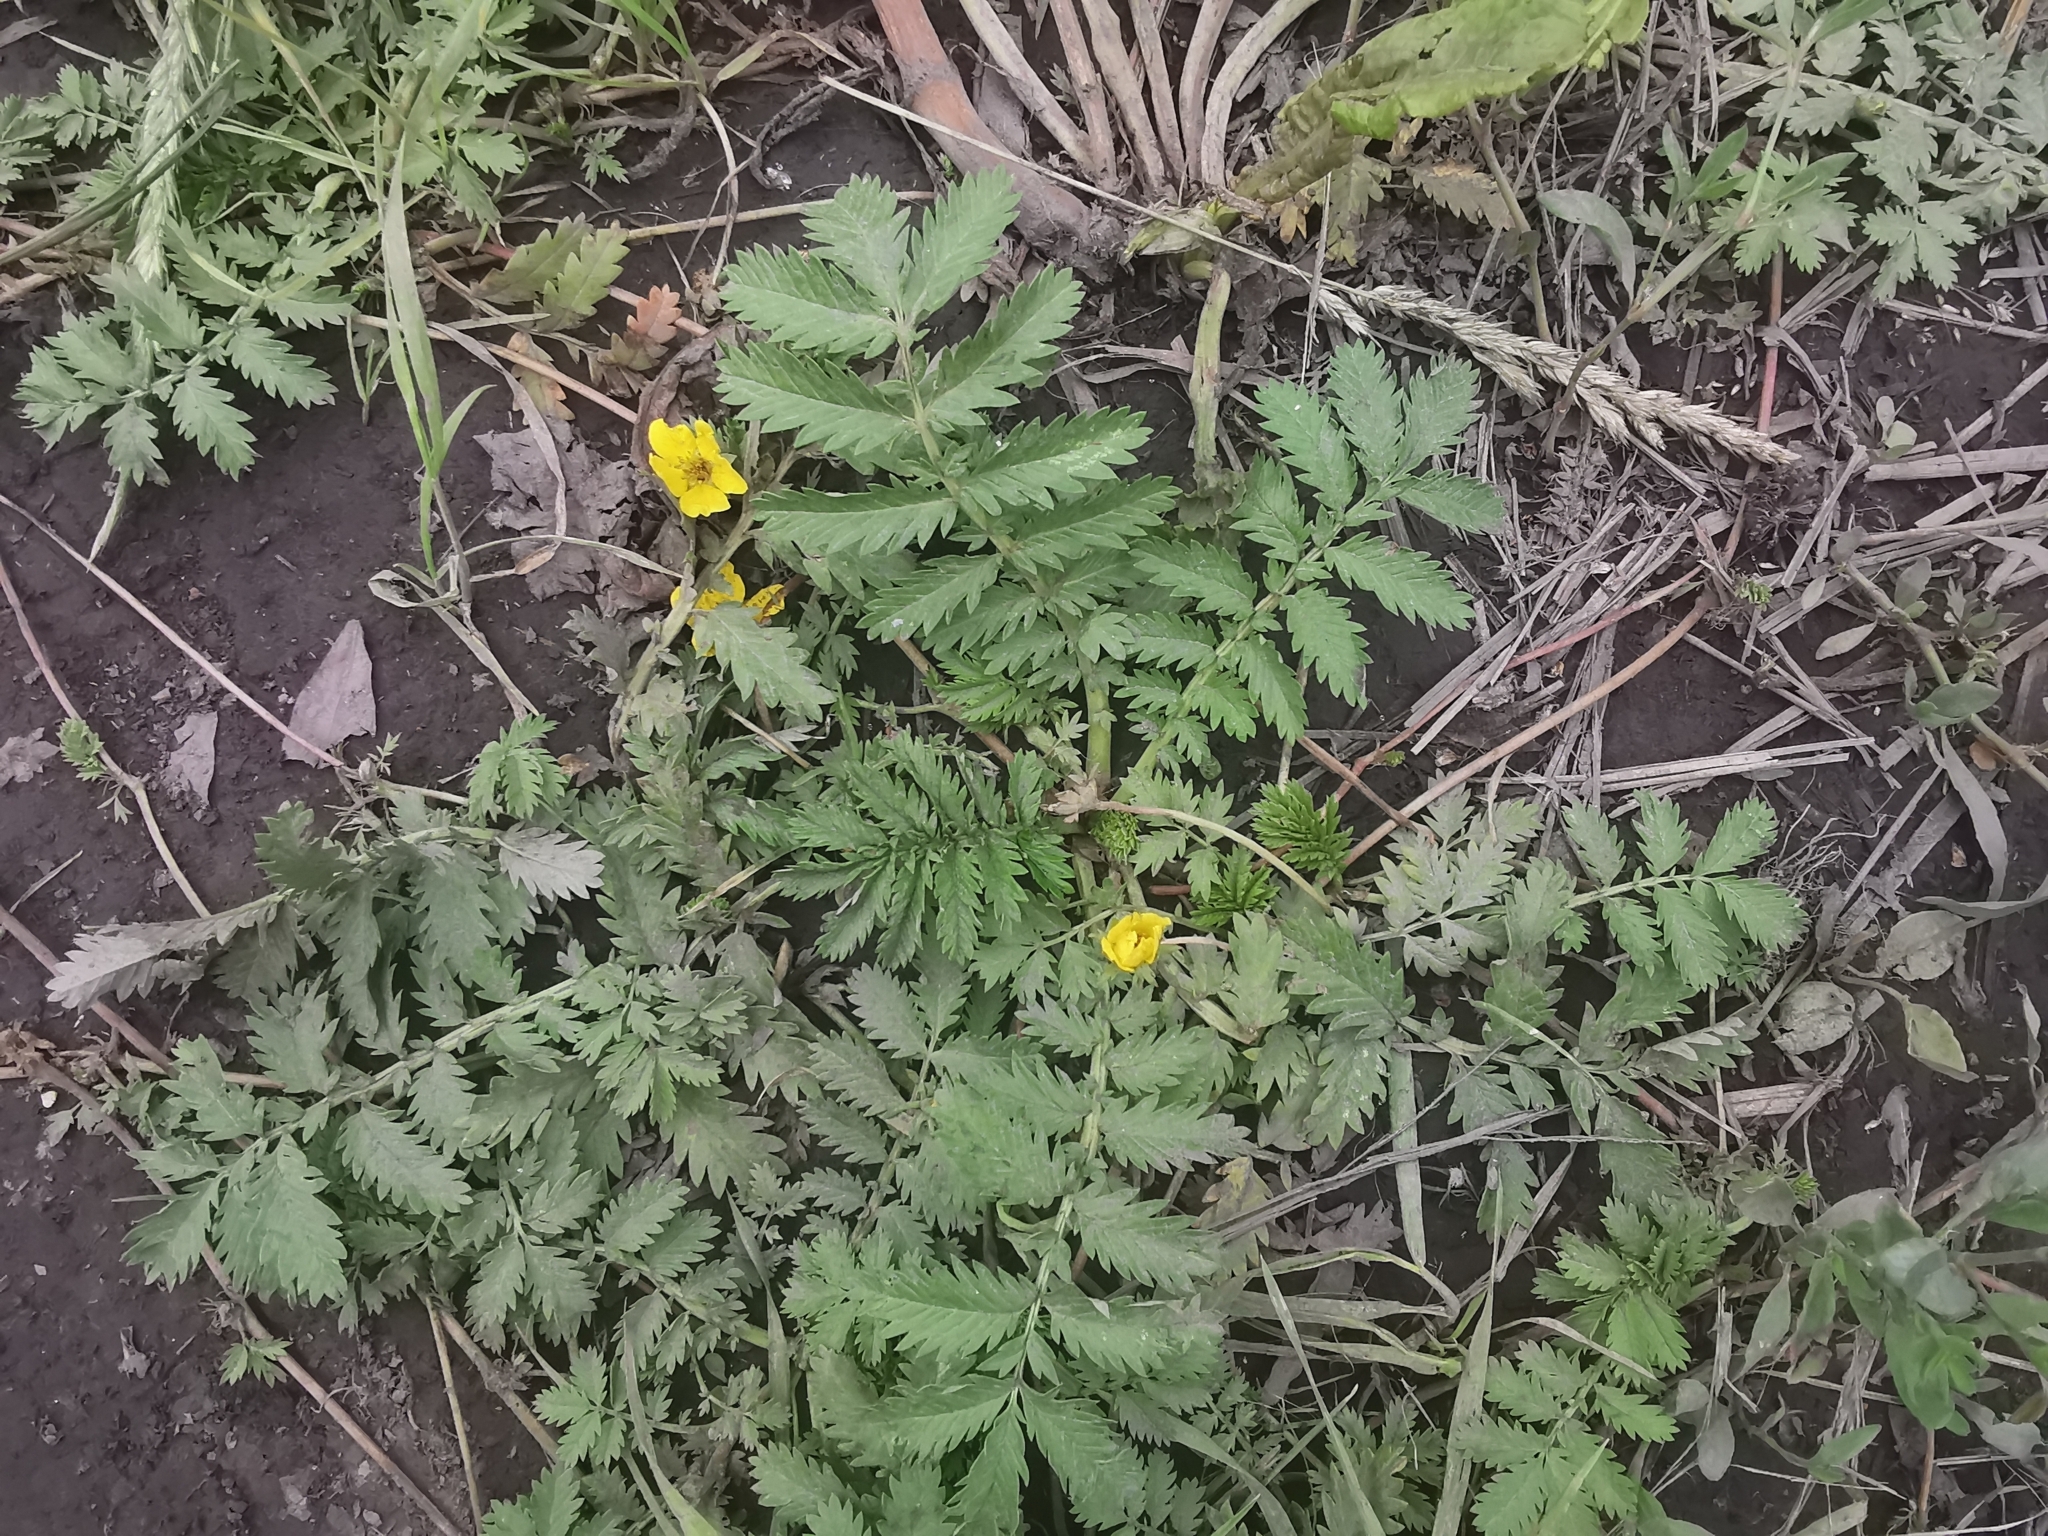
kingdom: Plantae
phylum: Tracheophyta
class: Magnoliopsida
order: Rosales
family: Rosaceae
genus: Argentina
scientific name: Argentina anserina
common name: Common silverweed
